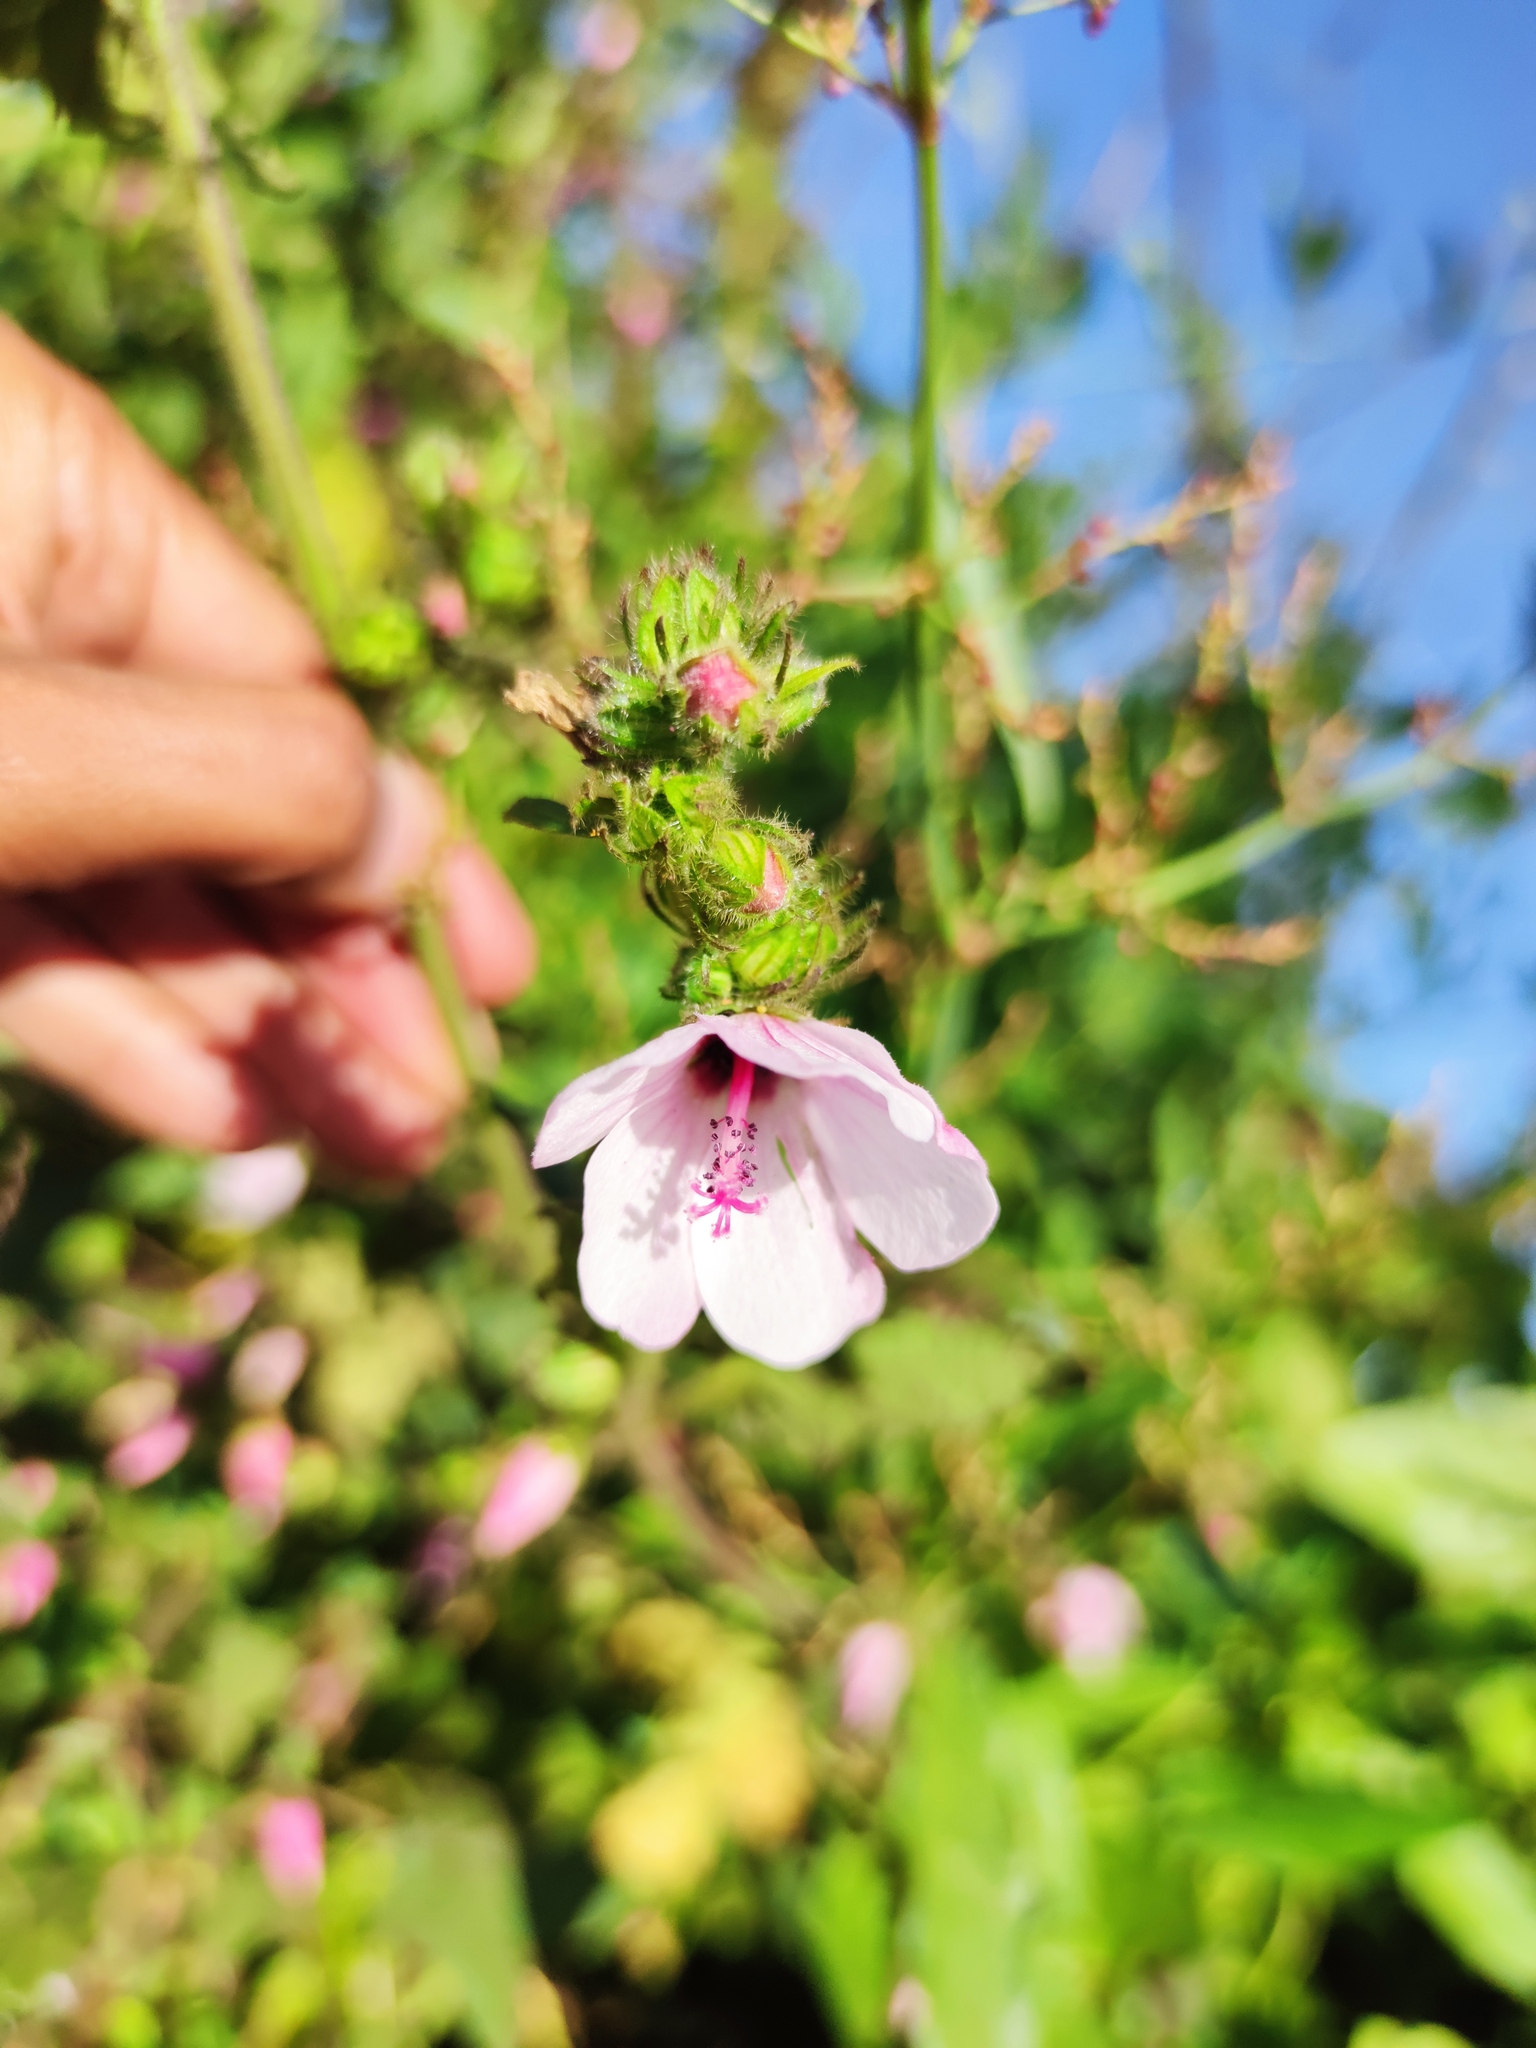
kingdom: Plantae
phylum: Tracheophyta
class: Magnoliopsida
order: Malvales
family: Malvaceae
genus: Pavonia
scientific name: Pavonia urens
